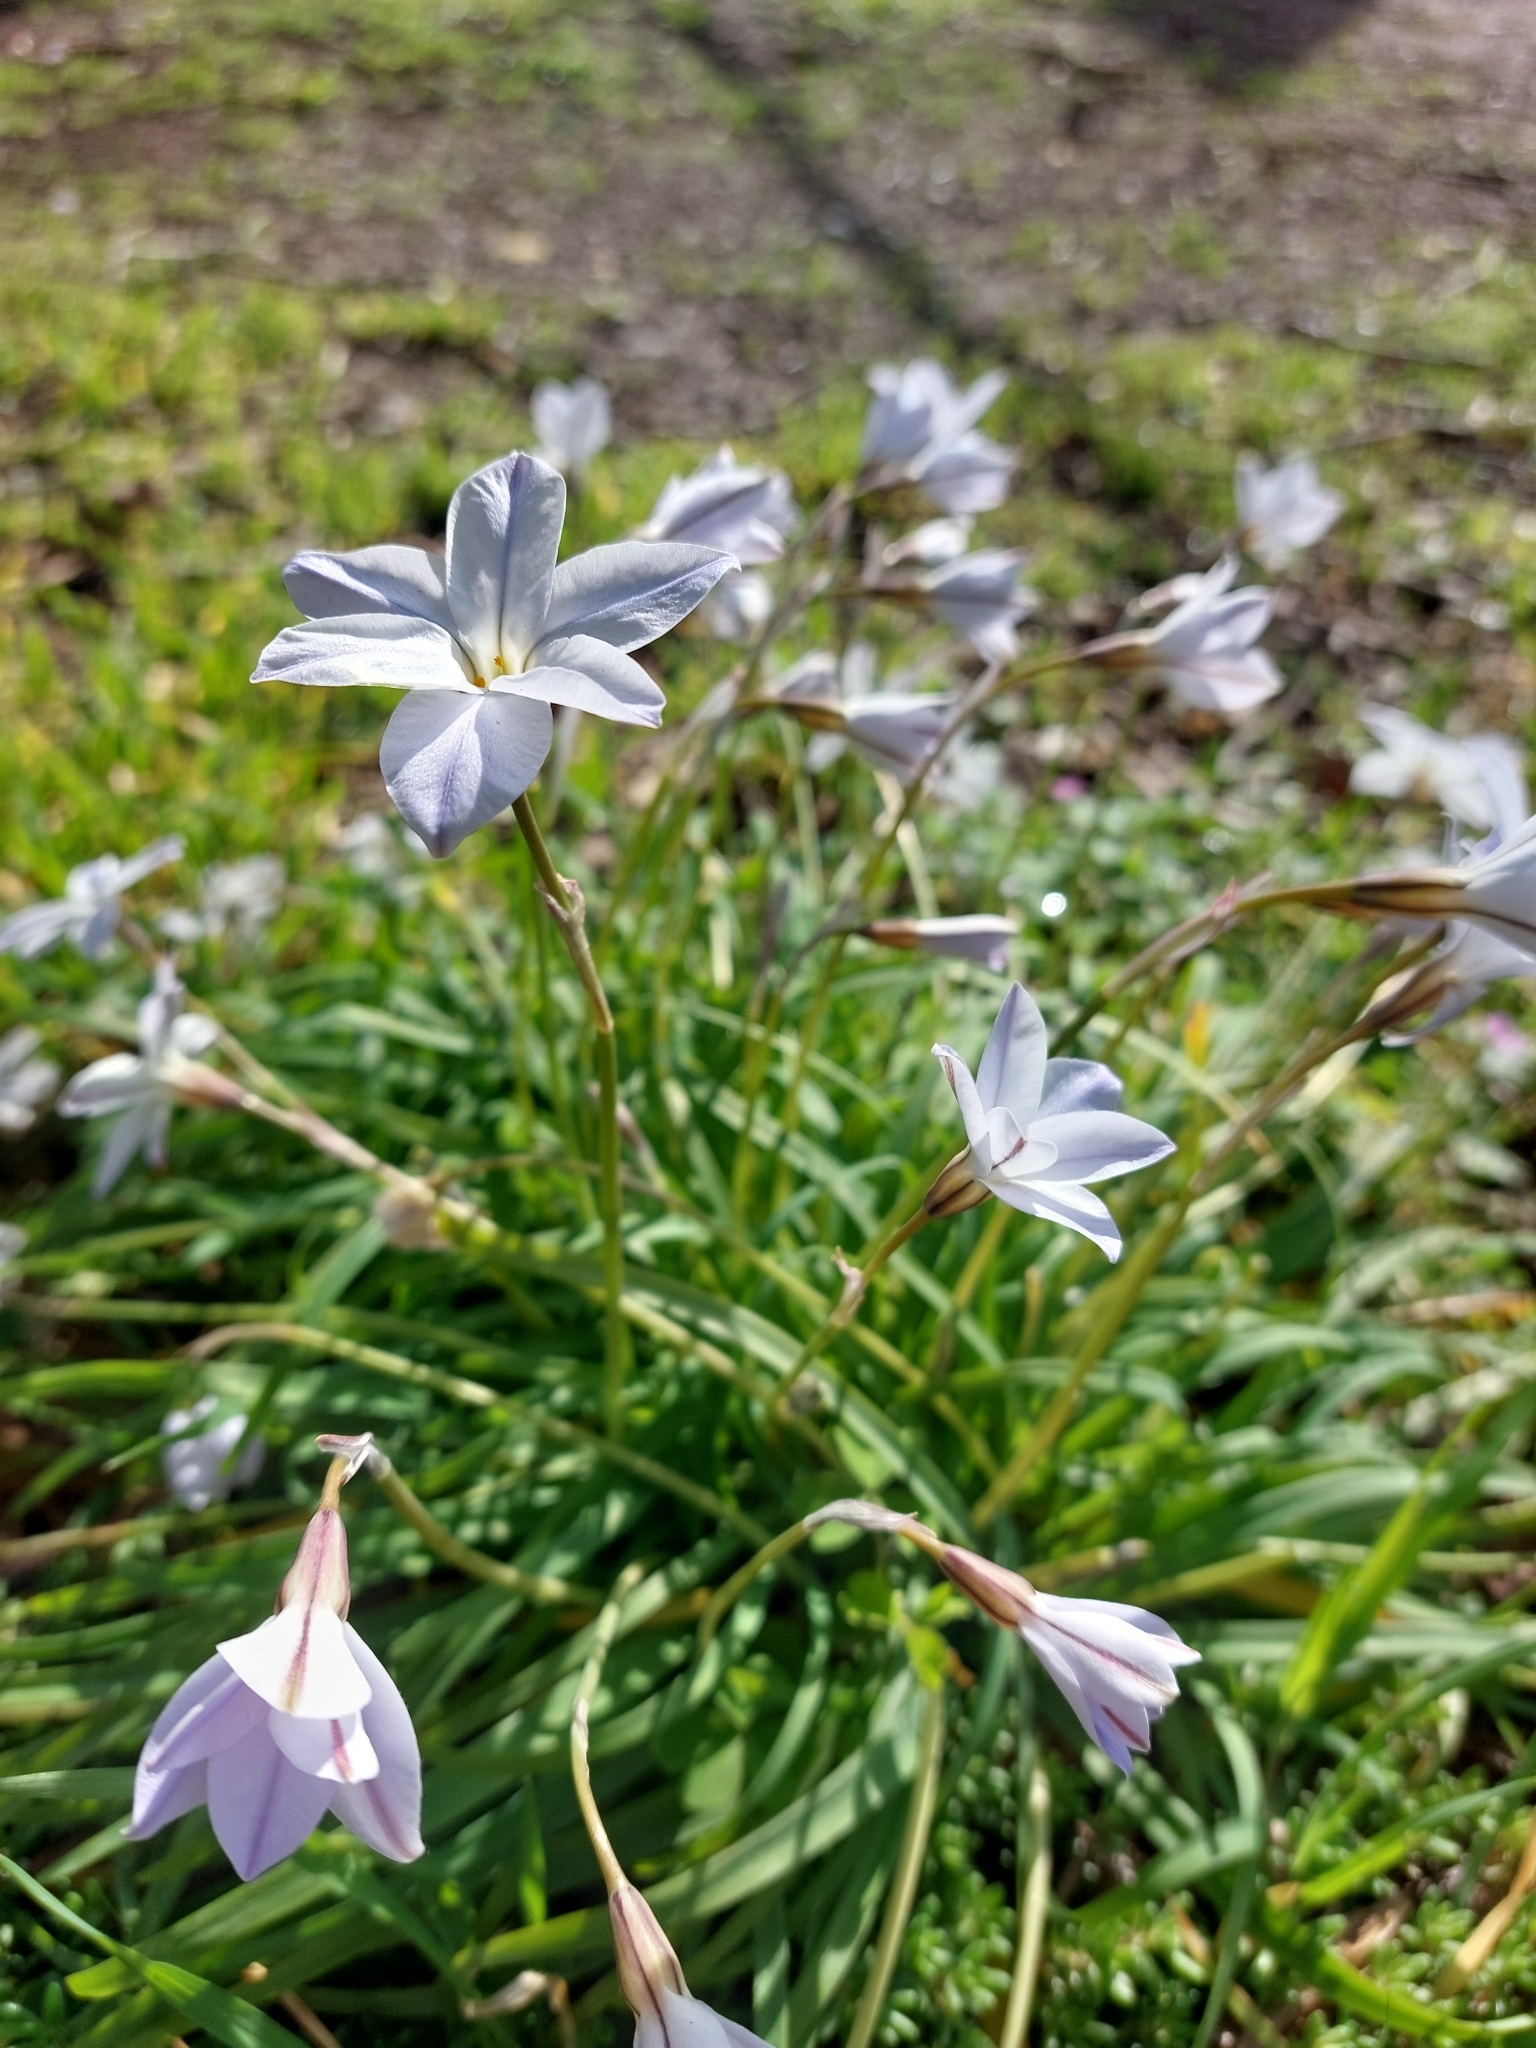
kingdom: Plantae
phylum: Tracheophyta
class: Liliopsida
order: Asparagales
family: Amaryllidaceae
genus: Ipheion
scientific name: Ipheion uniflorum
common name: Spring starflower
